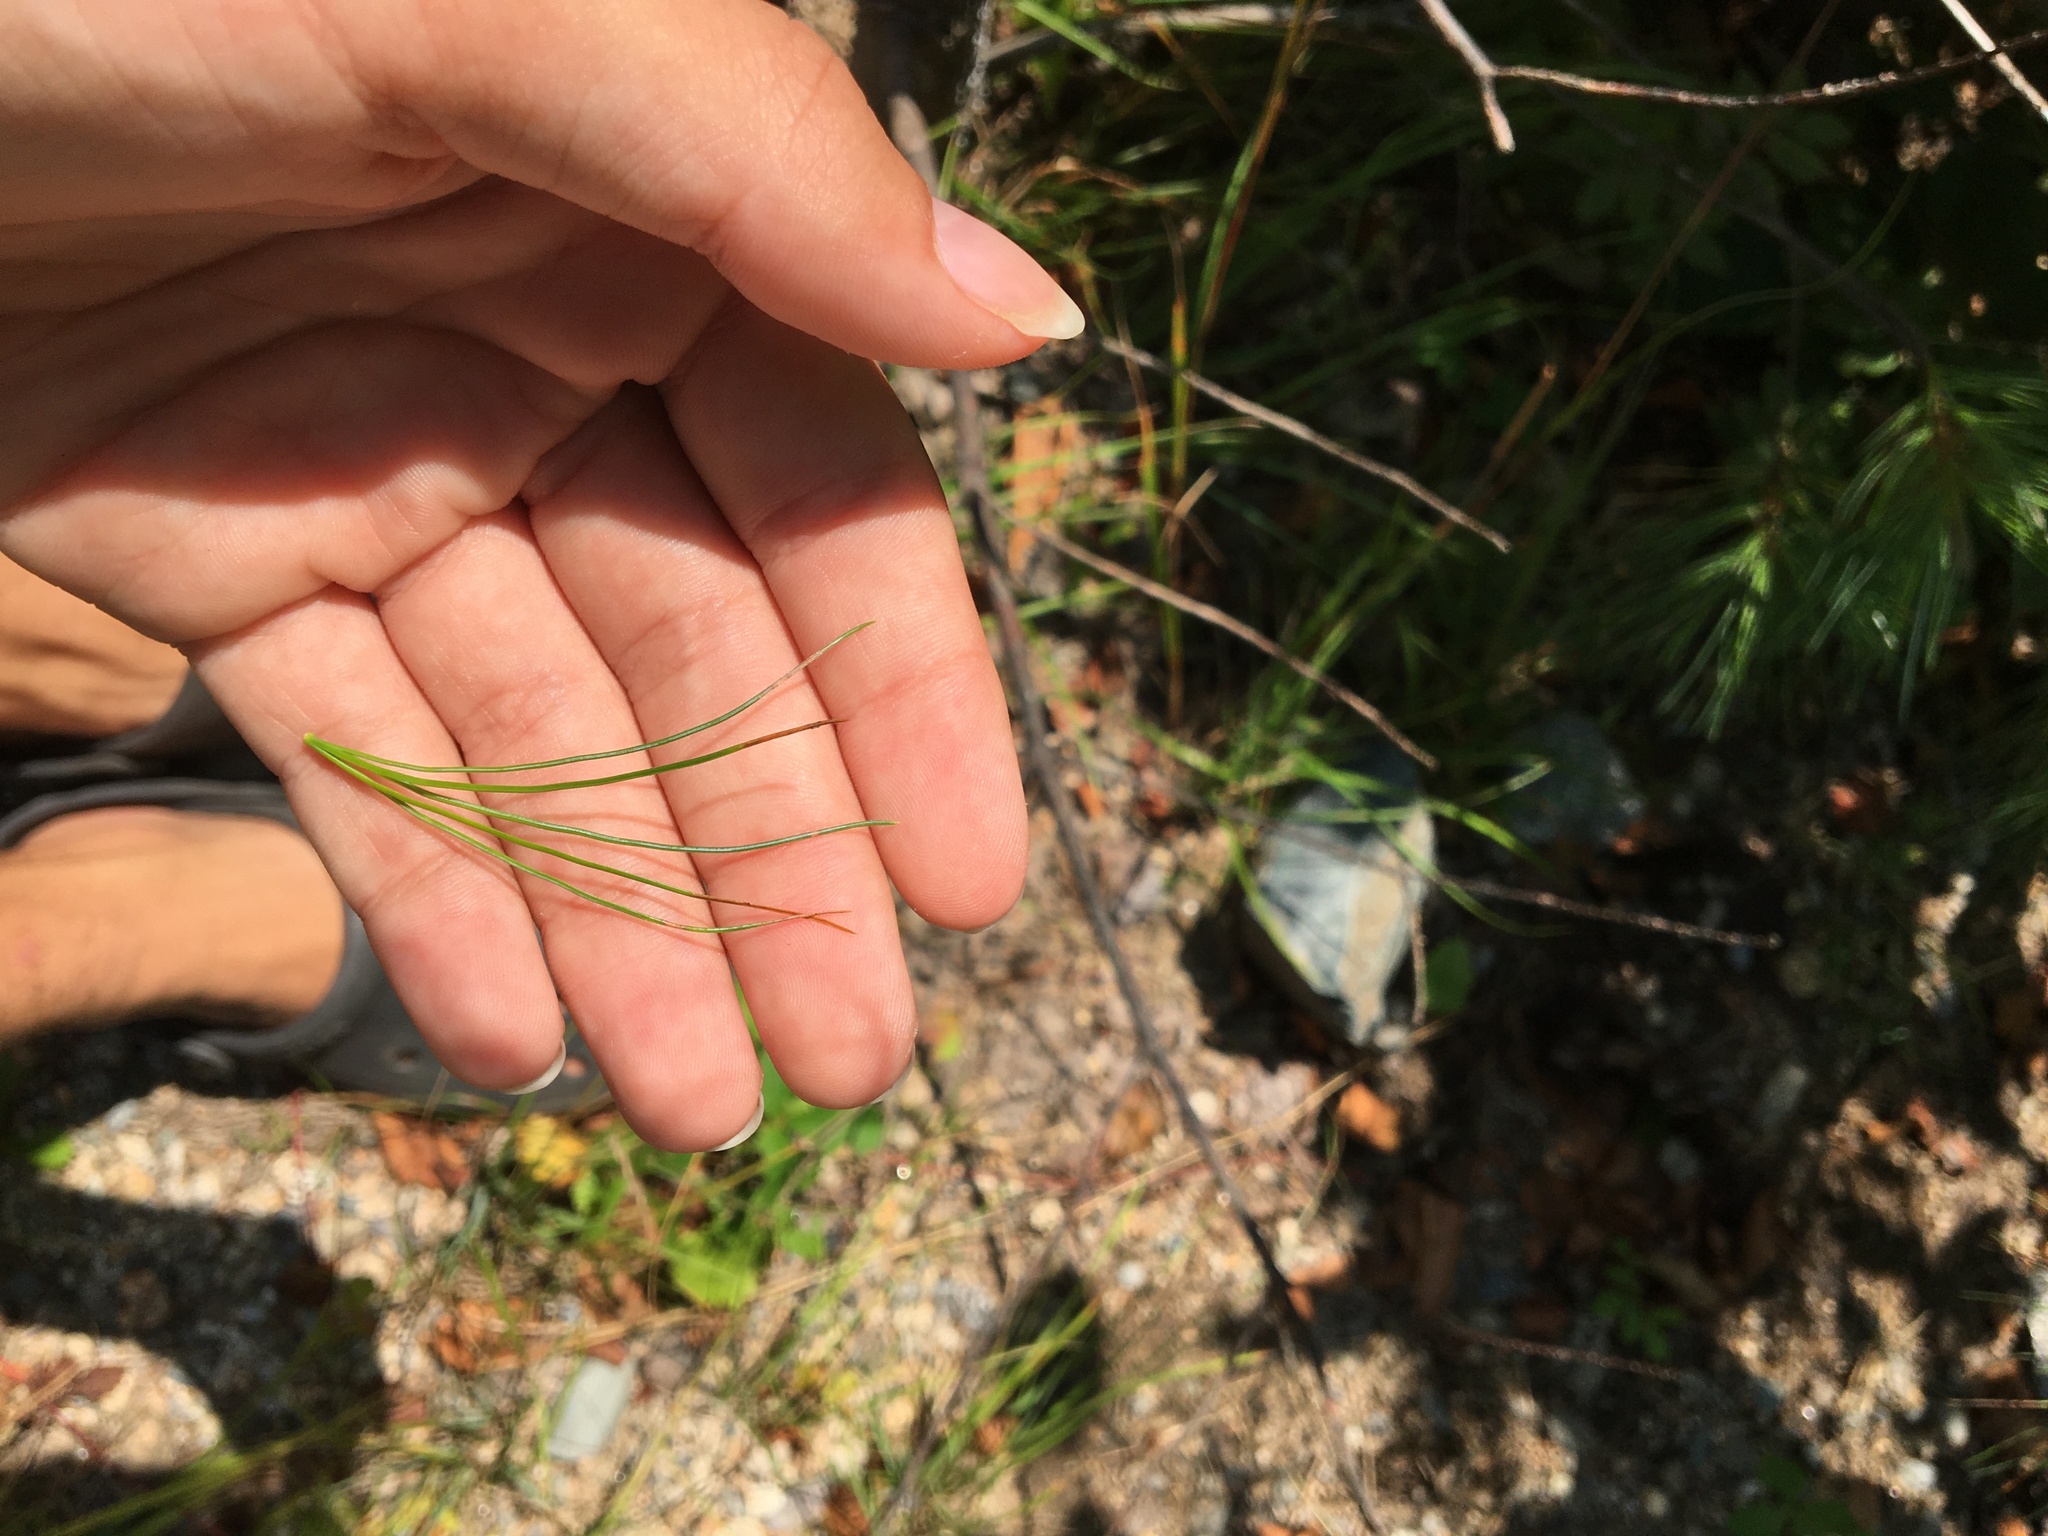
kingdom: Plantae
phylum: Tracheophyta
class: Pinopsida
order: Pinales
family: Pinaceae
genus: Pinus
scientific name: Pinus strobus
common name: Weymouth pine
